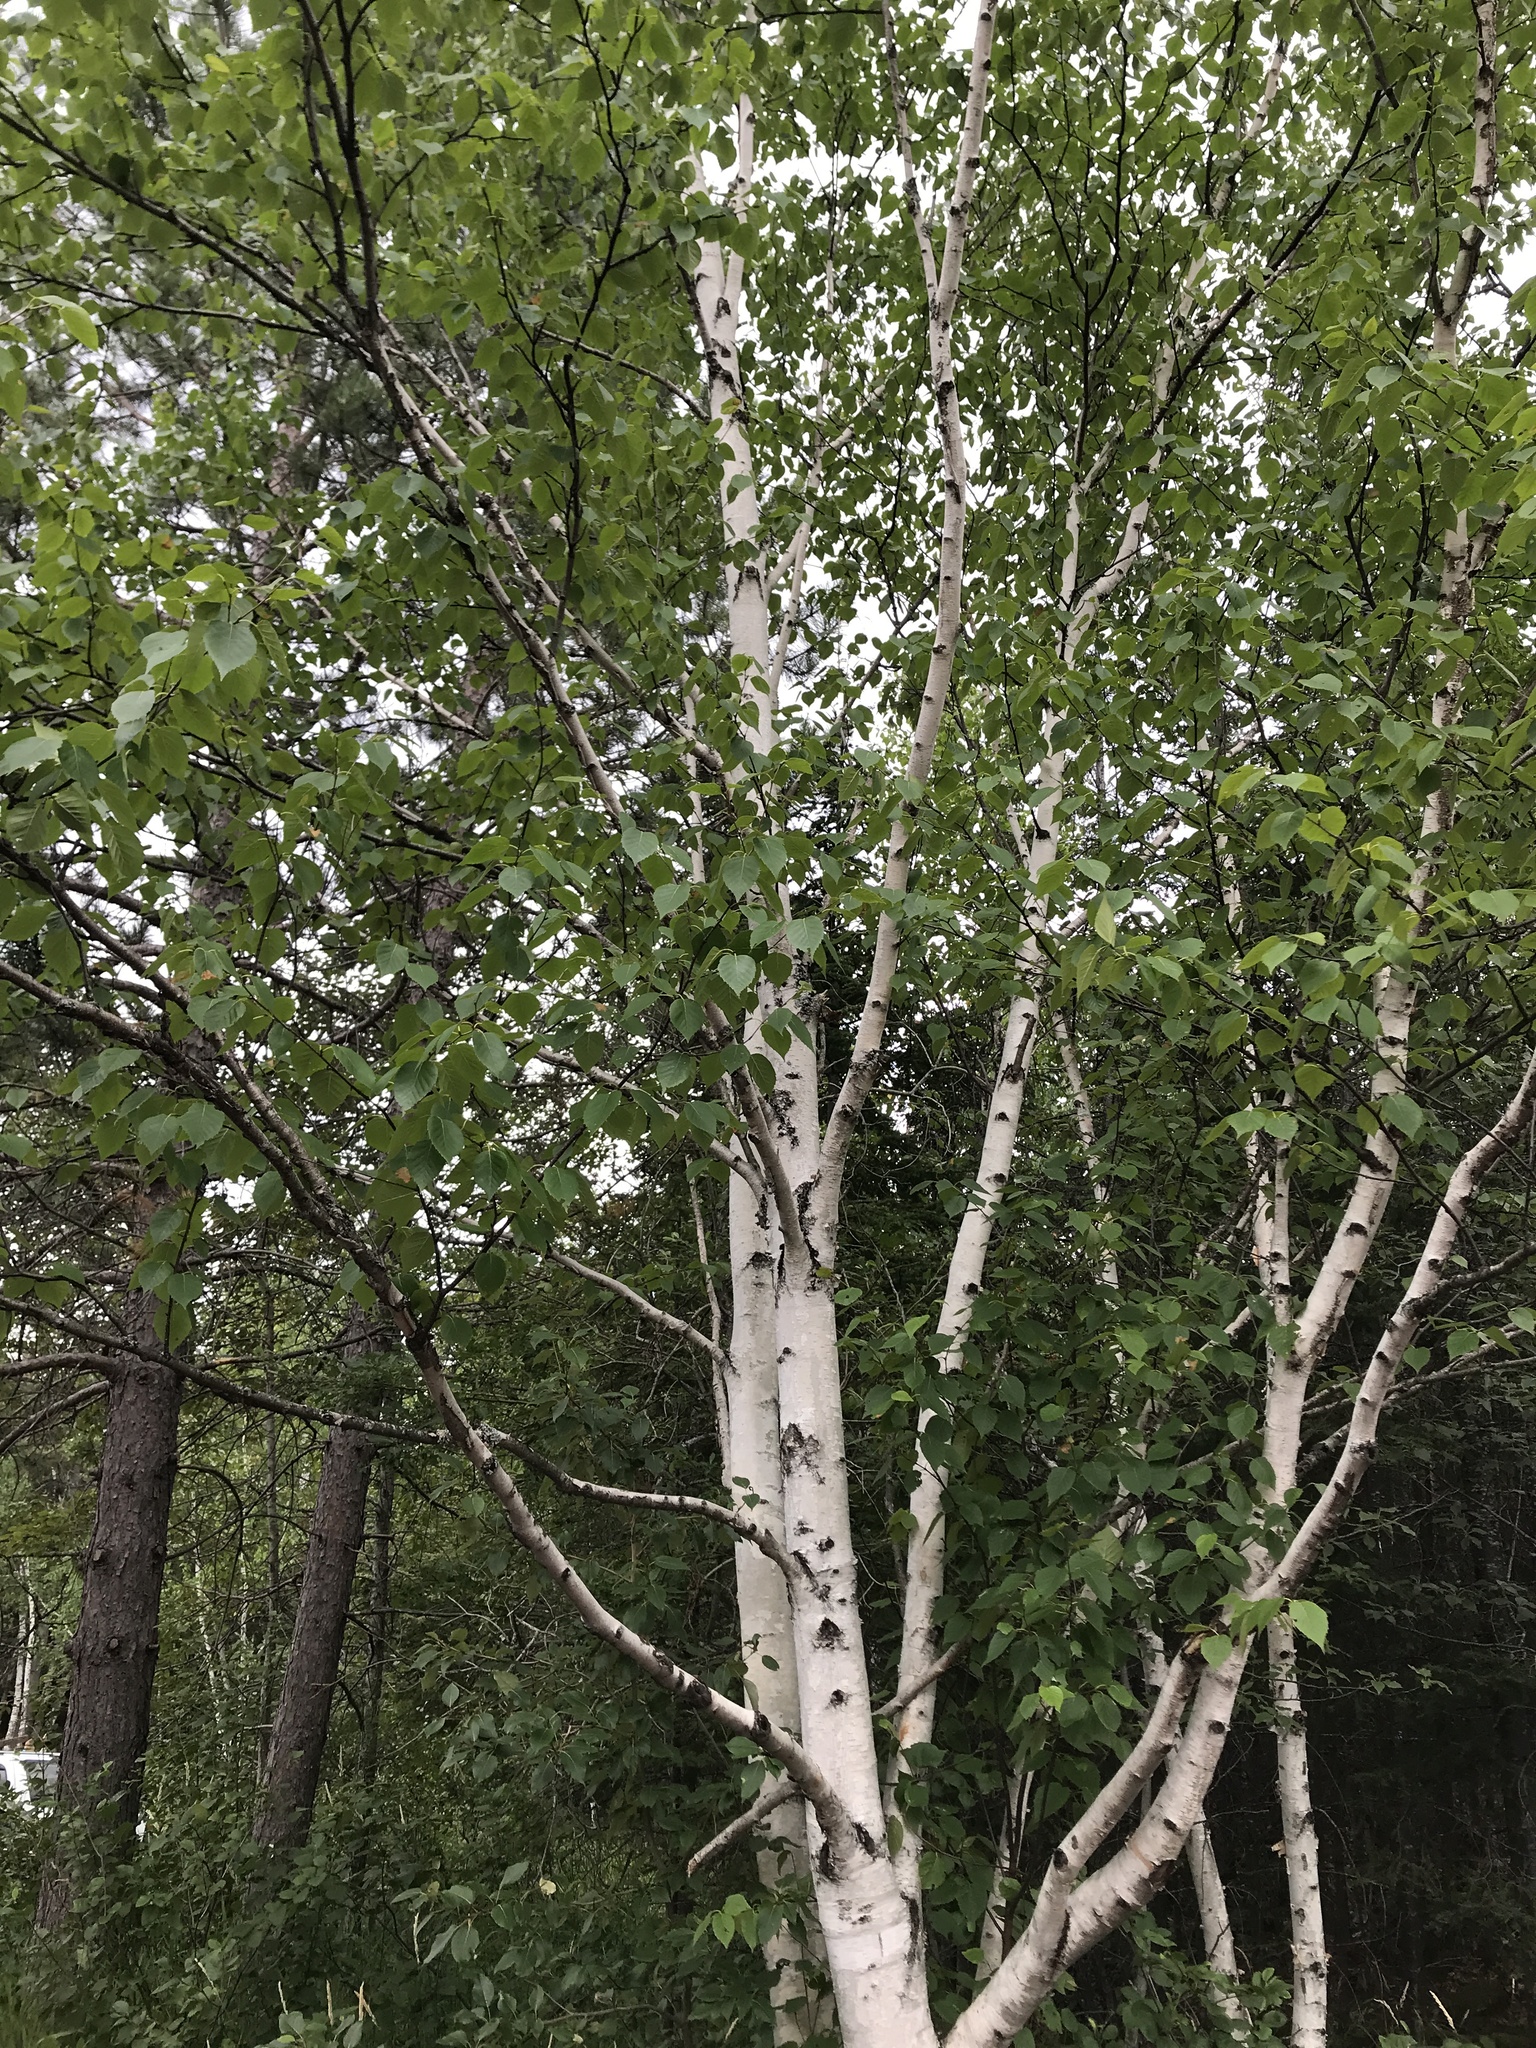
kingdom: Plantae
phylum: Tracheophyta
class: Magnoliopsida
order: Fagales
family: Betulaceae
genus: Betula
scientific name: Betula papyrifera
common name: Paper birch
